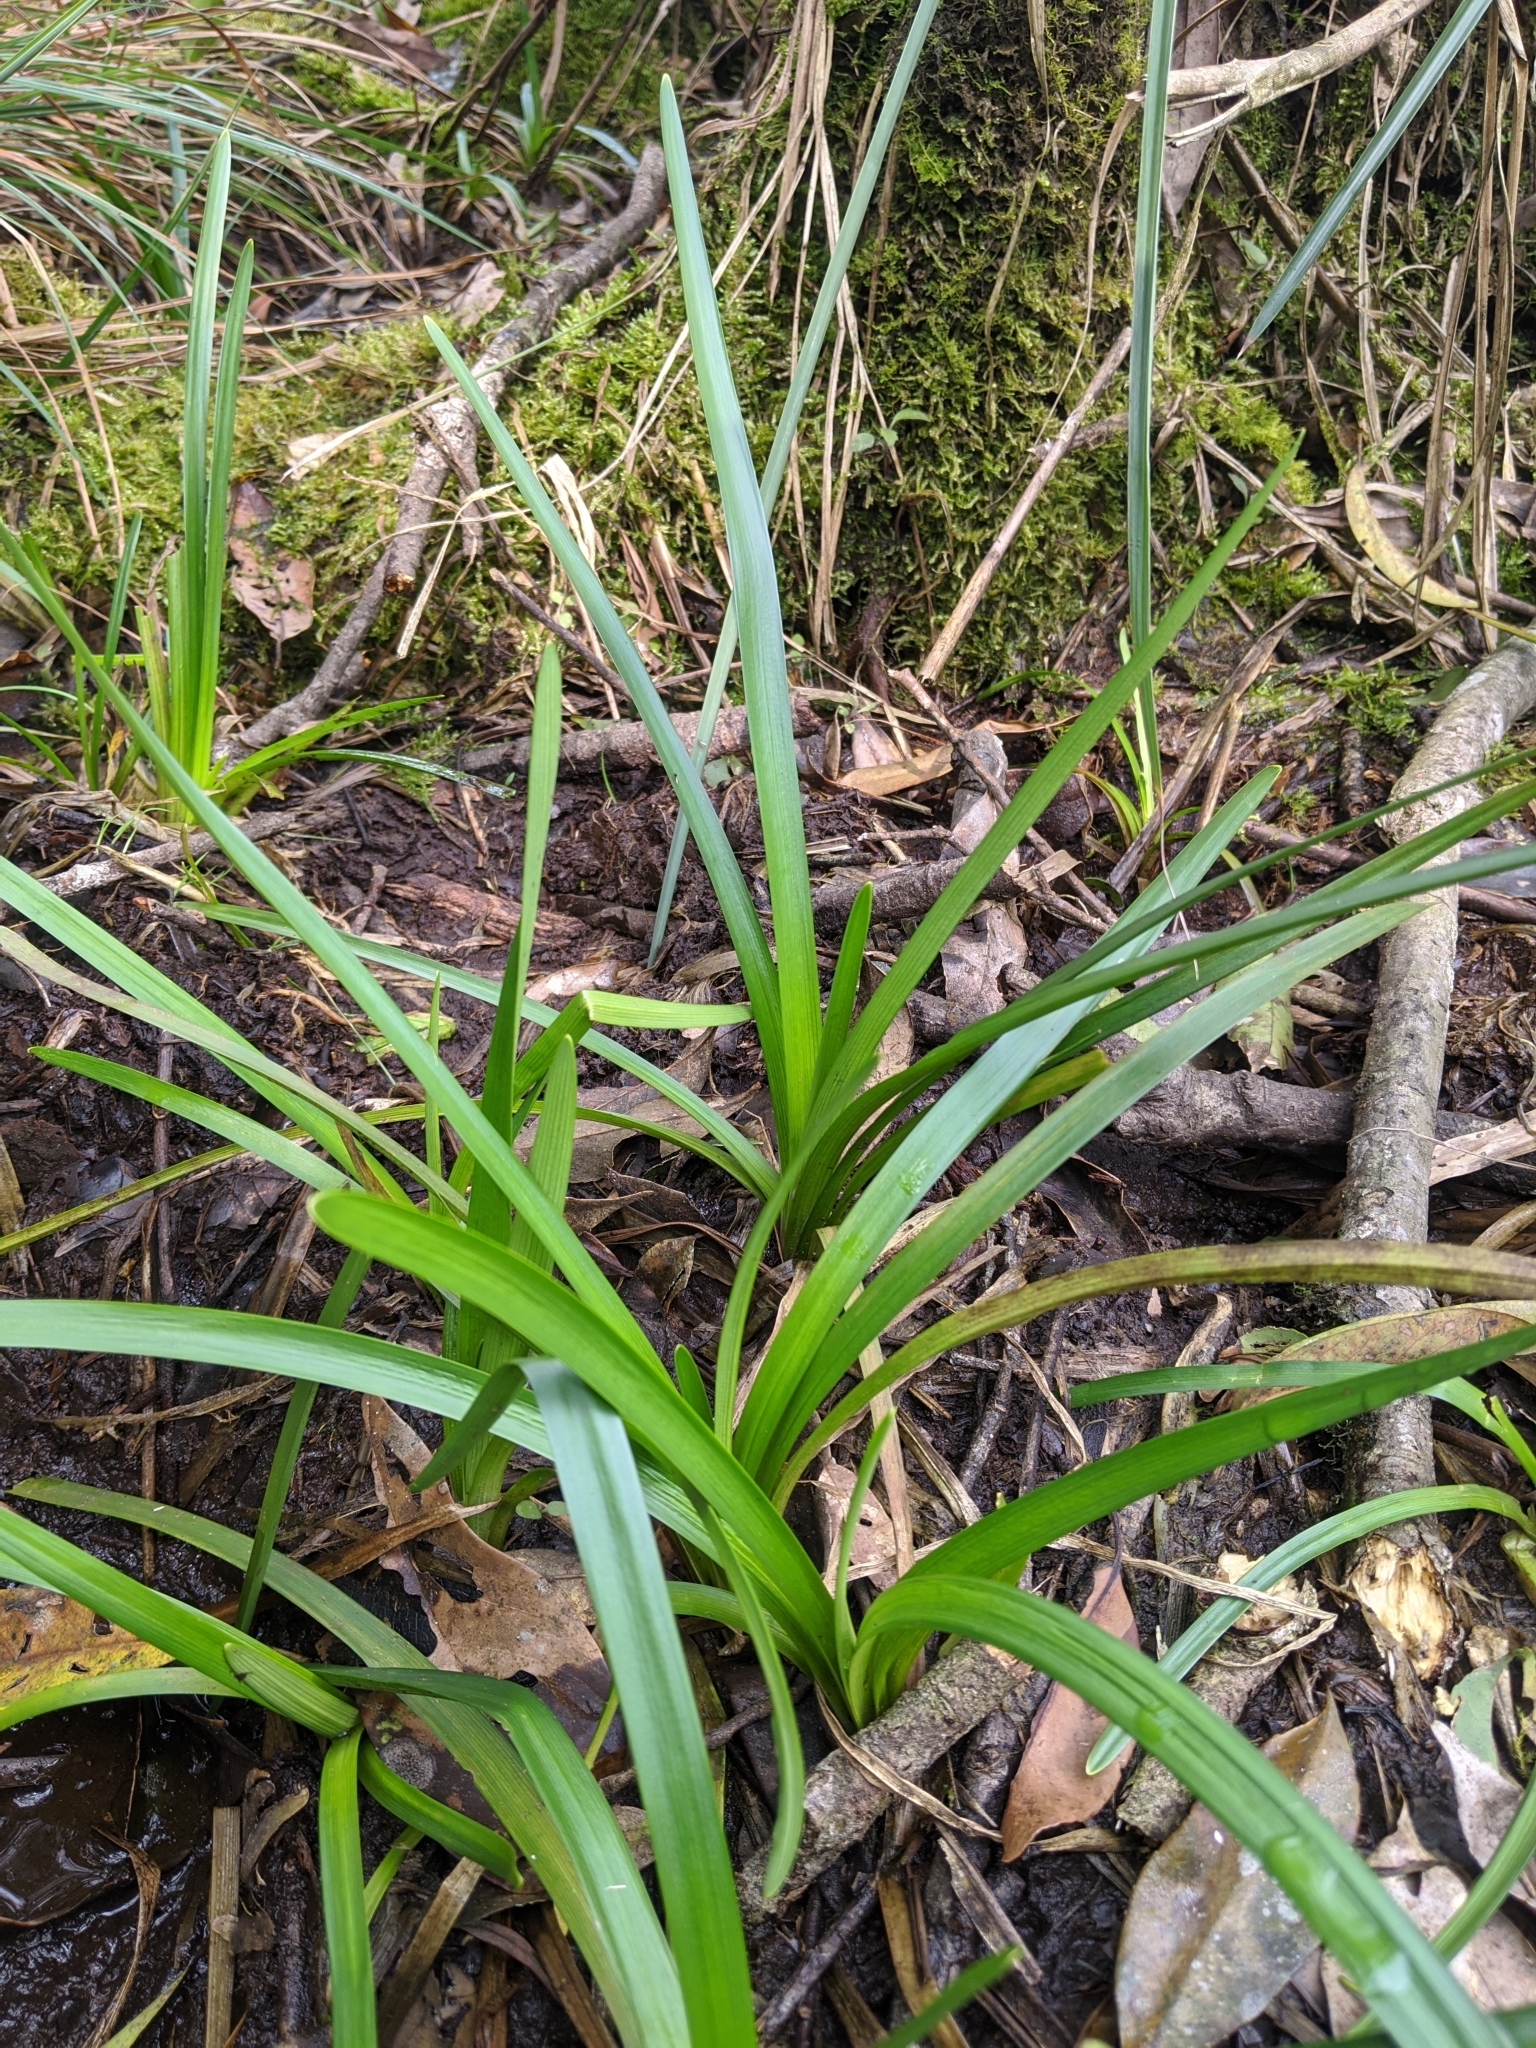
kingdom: Plantae
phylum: Tracheophyta
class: Liliopsida
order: Poales
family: Typhaceae
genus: Sparganium
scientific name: Sparganium fallax
